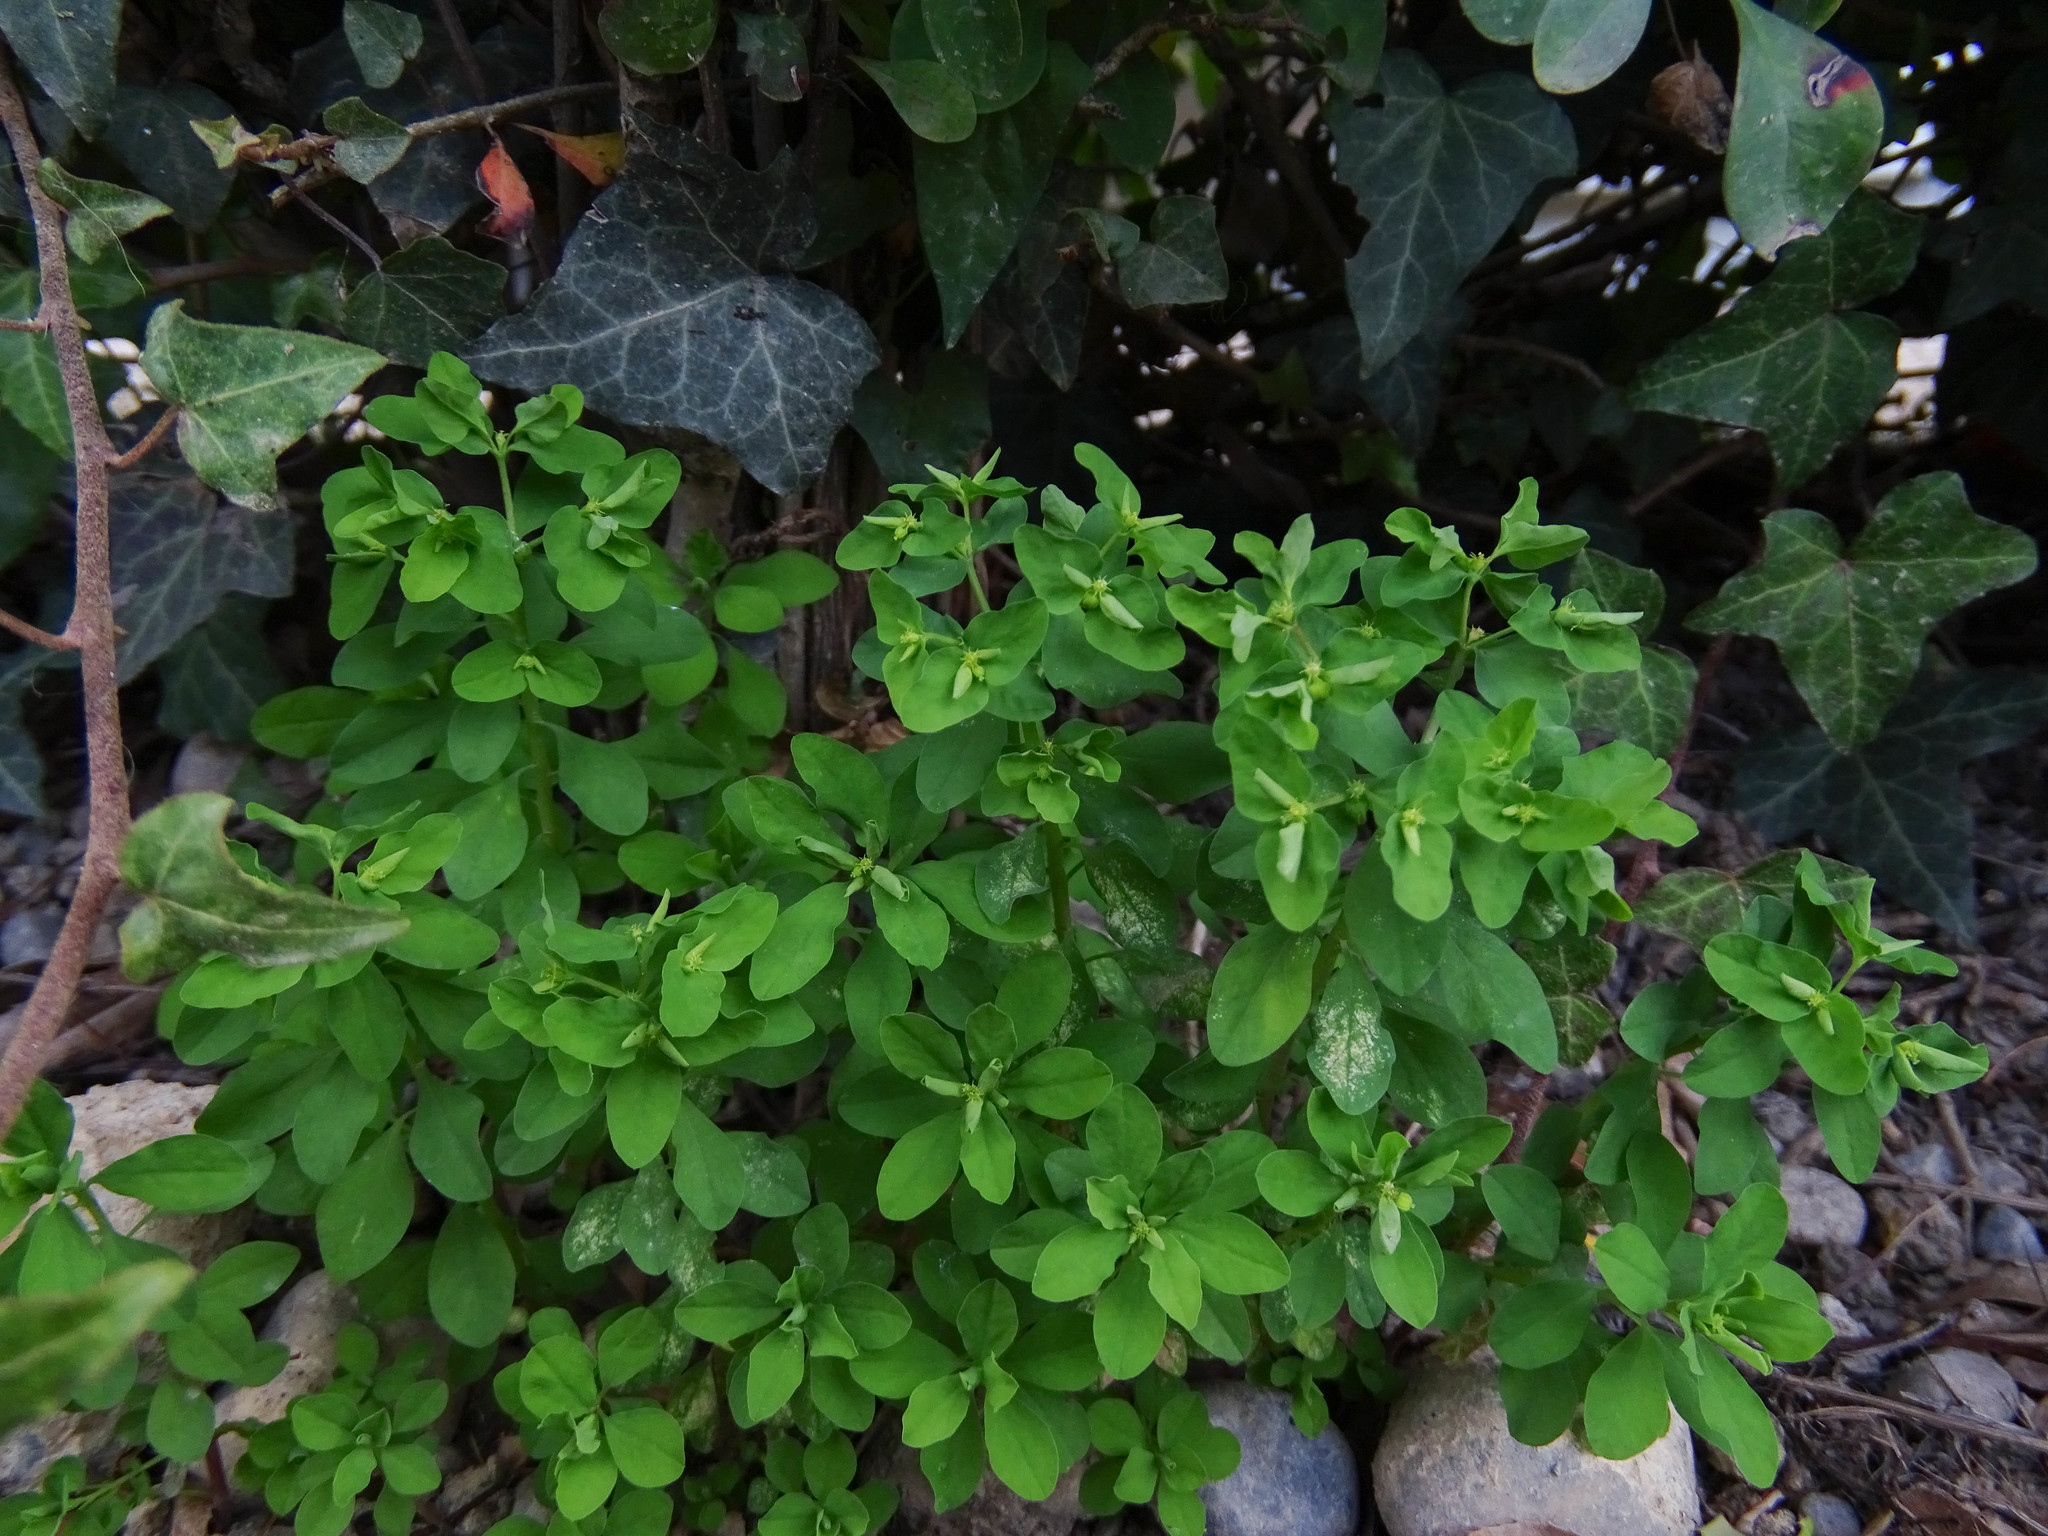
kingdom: Plantae
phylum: Tracheophyta
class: Magnoliopsida
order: Malpighiales
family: Euphorbiaceae
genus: Euphorbia
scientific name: Euphorbia peplus
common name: Petty spurge
